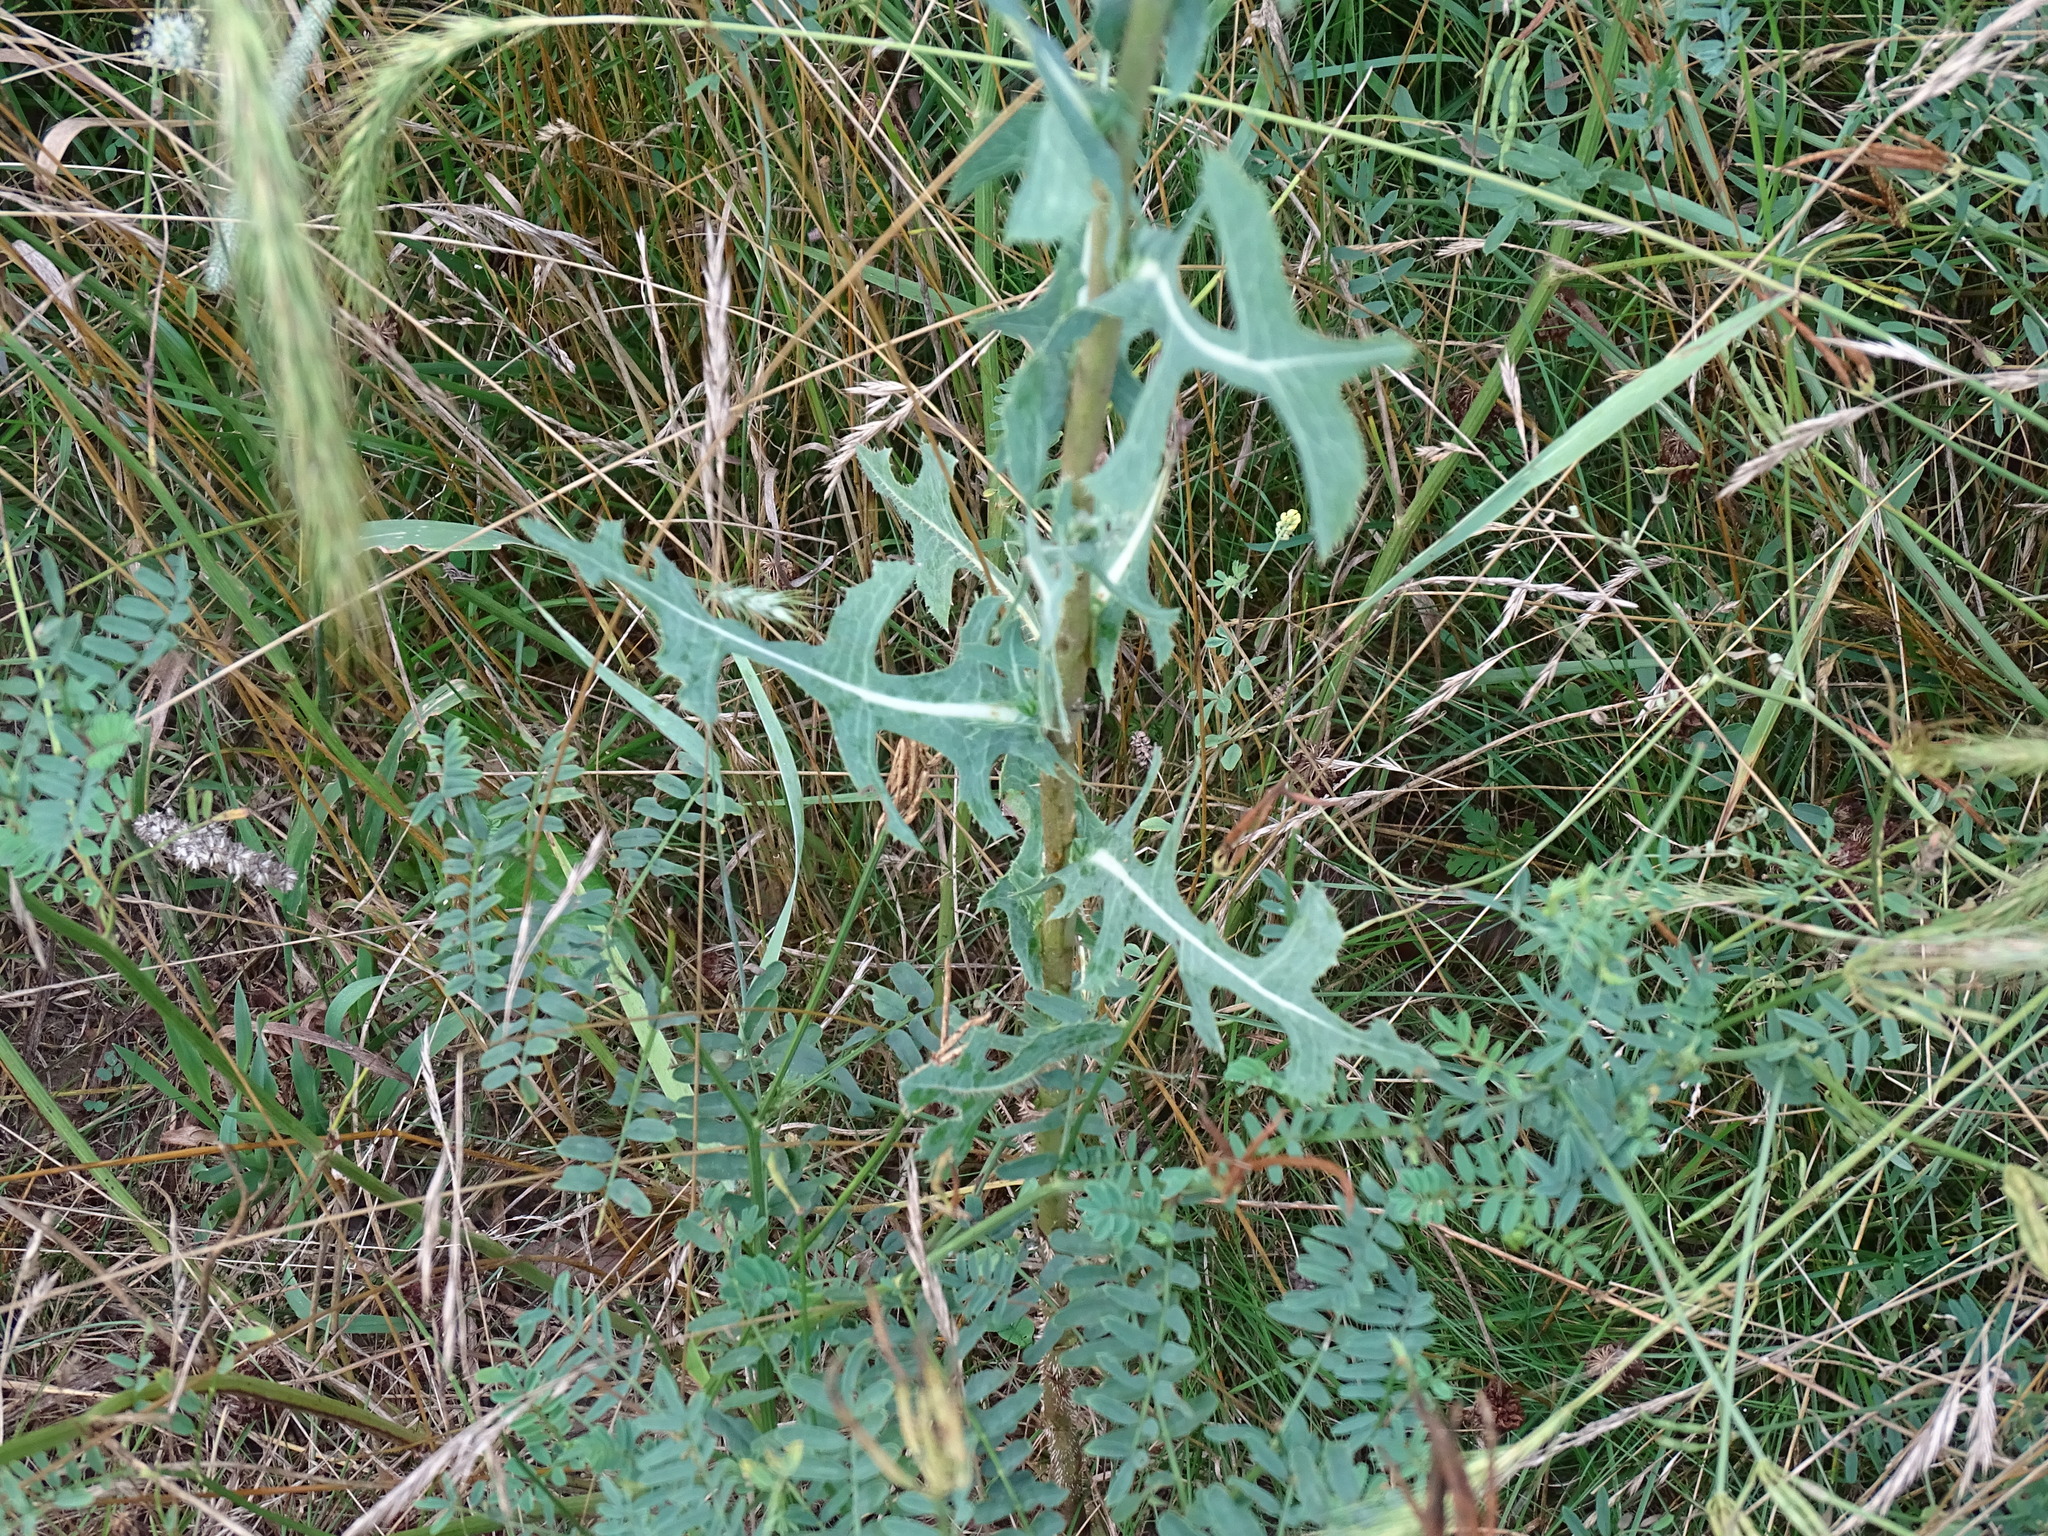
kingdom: Plantae
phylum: Tracheophyta
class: Magnoliopsida
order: Asterales
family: Asteraceae
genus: Lactuca
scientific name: Lactuca serriola
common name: Prickly lettuce
